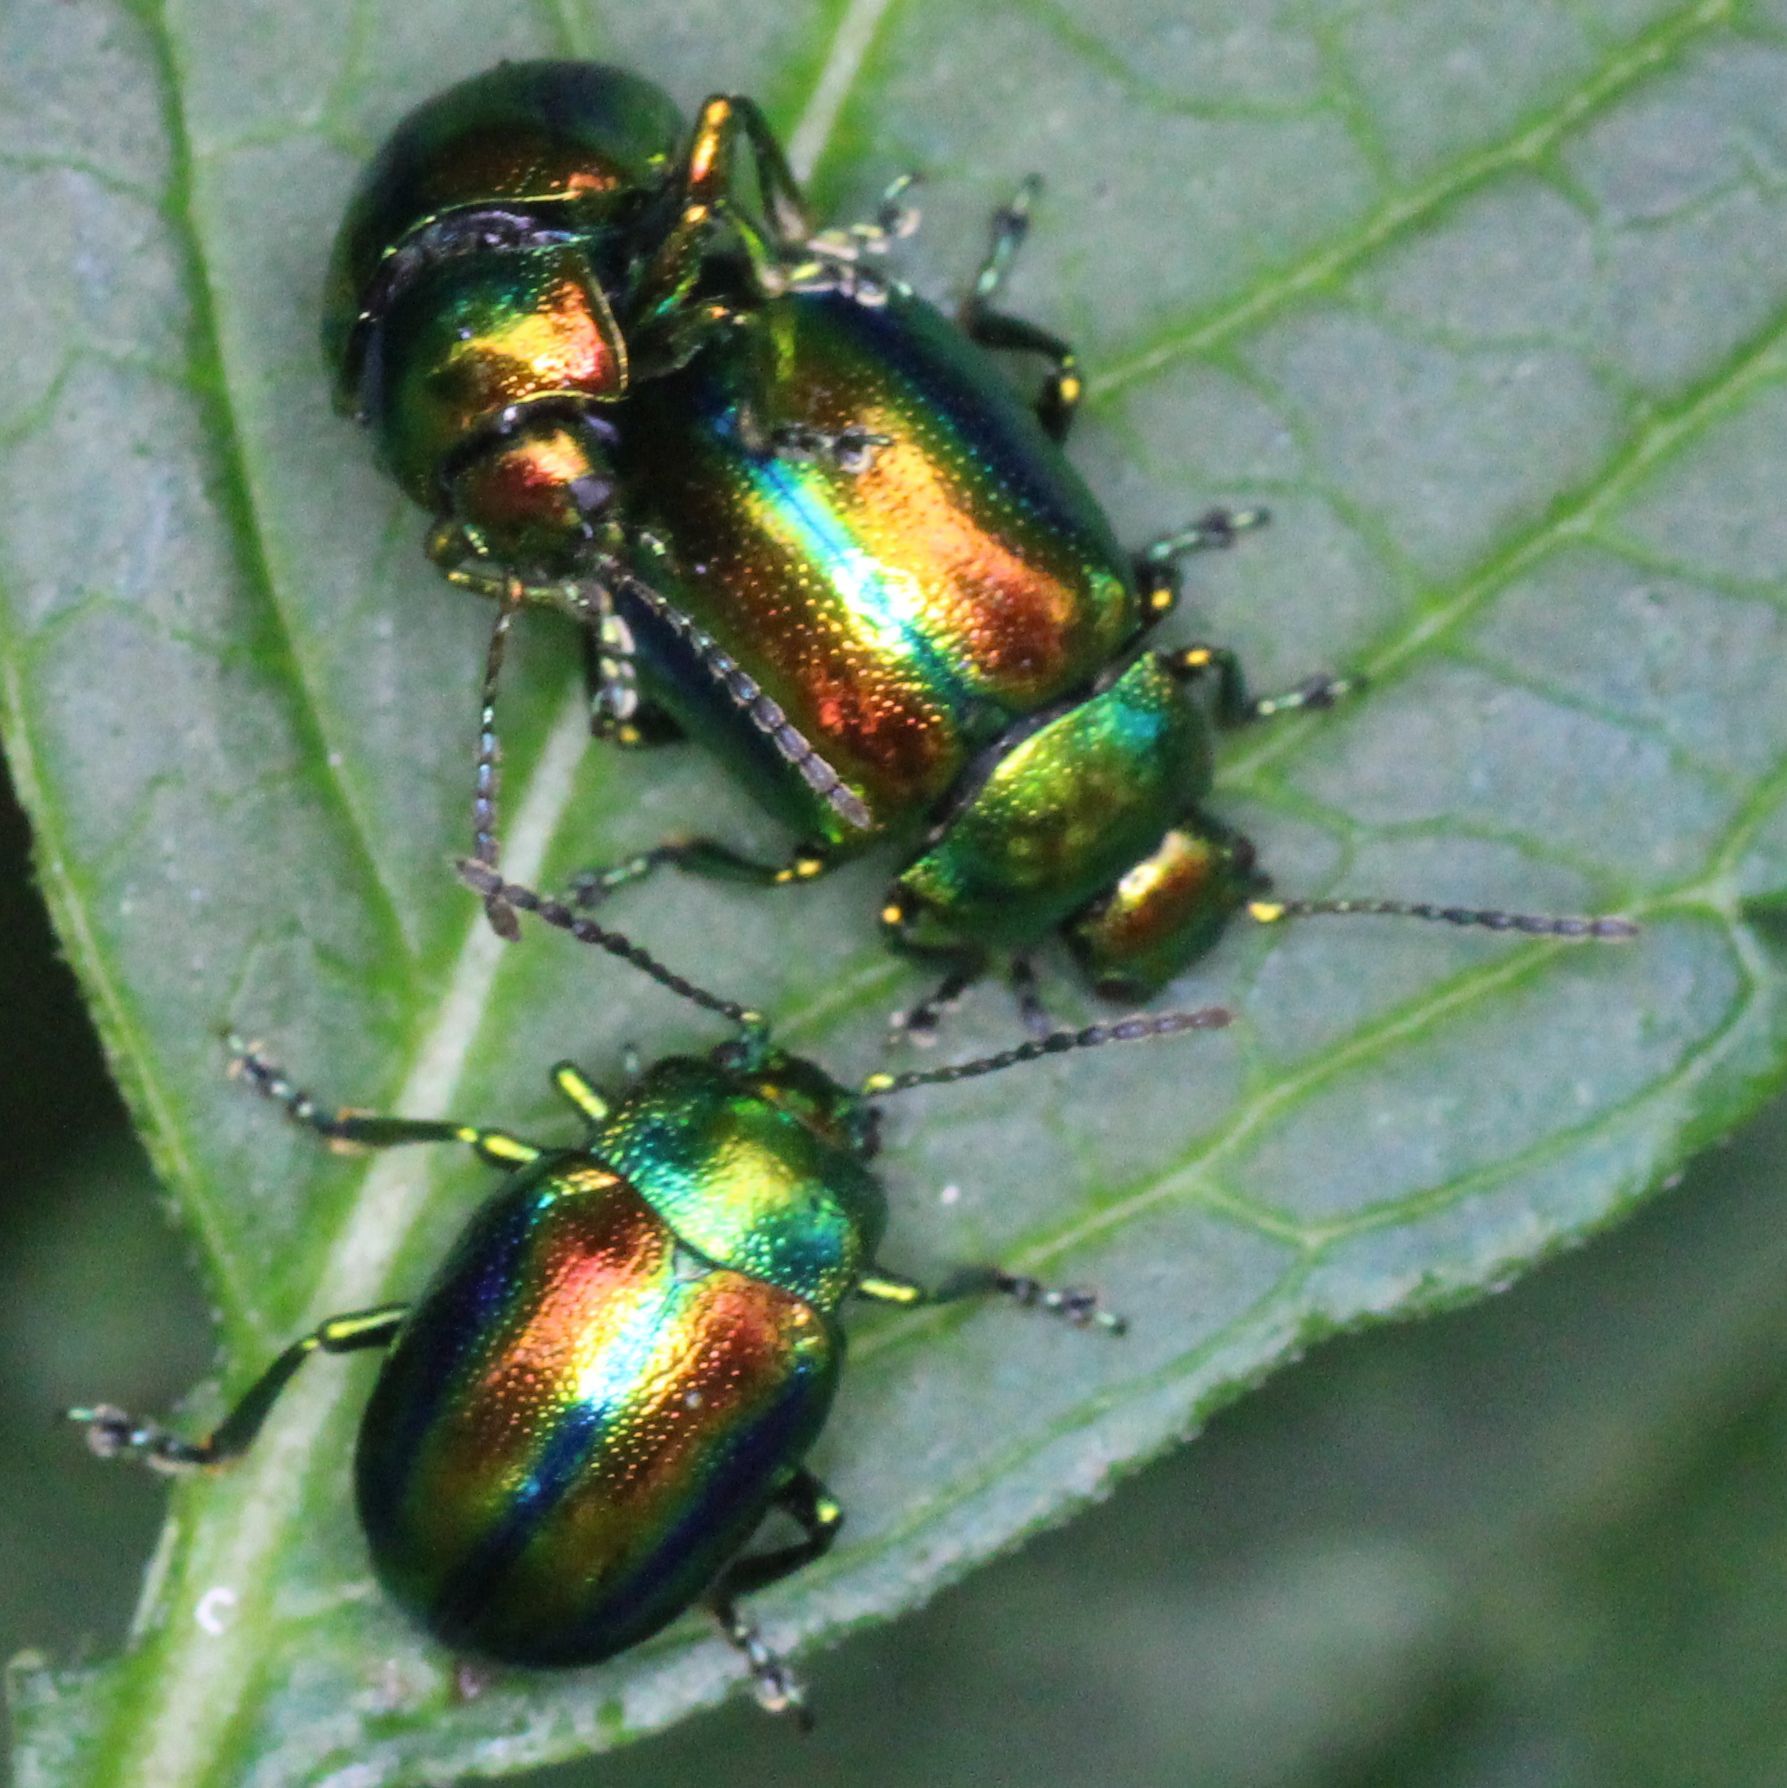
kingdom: Animalia
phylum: Arthropoda
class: Insecta
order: Coleoptera
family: Chrysomelidae
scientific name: Chrysomelidae
